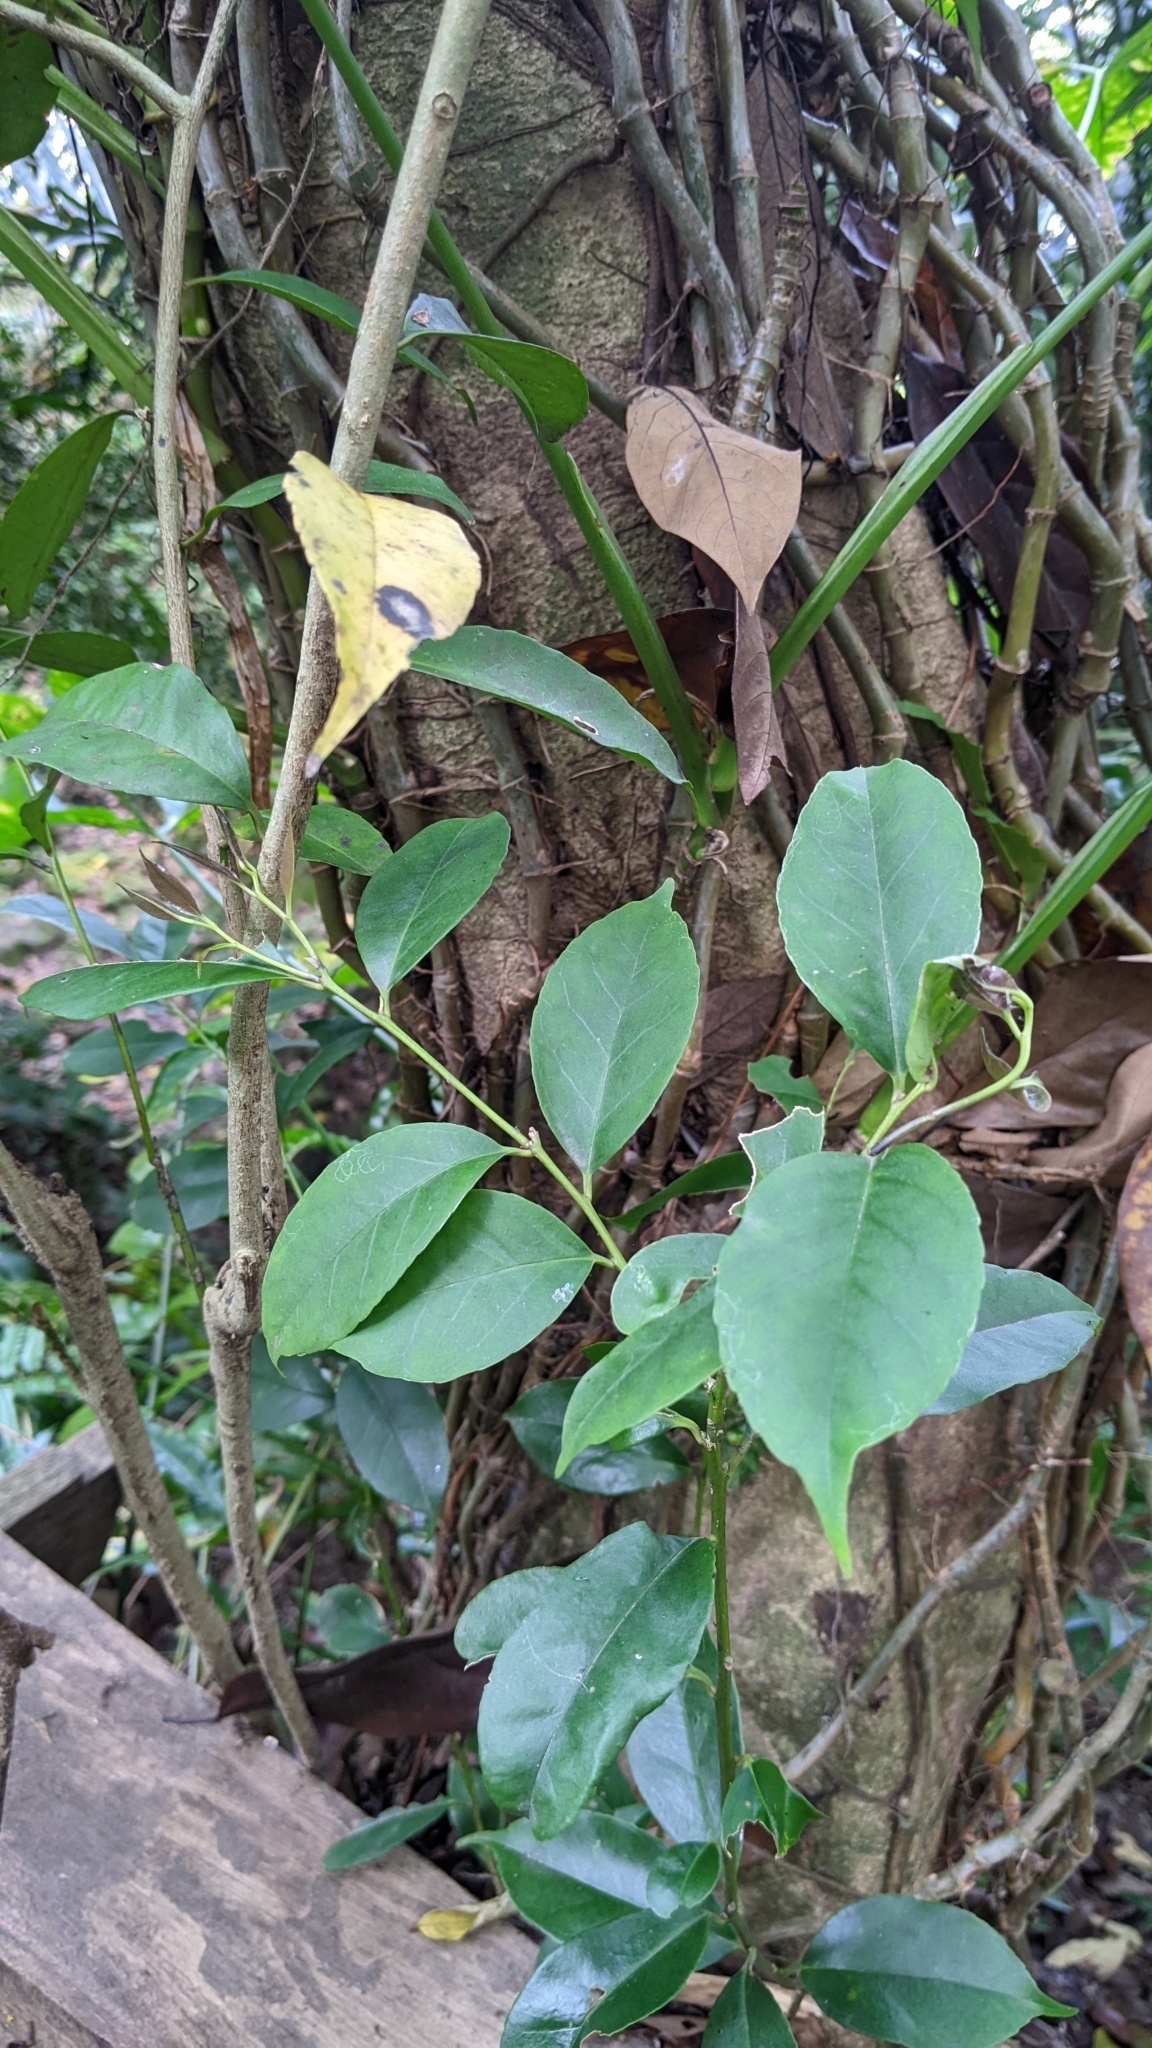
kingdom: Plantae
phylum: Tracheophyta
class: Magnoliopsida
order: Aquifoliales
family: Aquifoliaceae
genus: Ilex
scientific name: Ilex ficoidea
